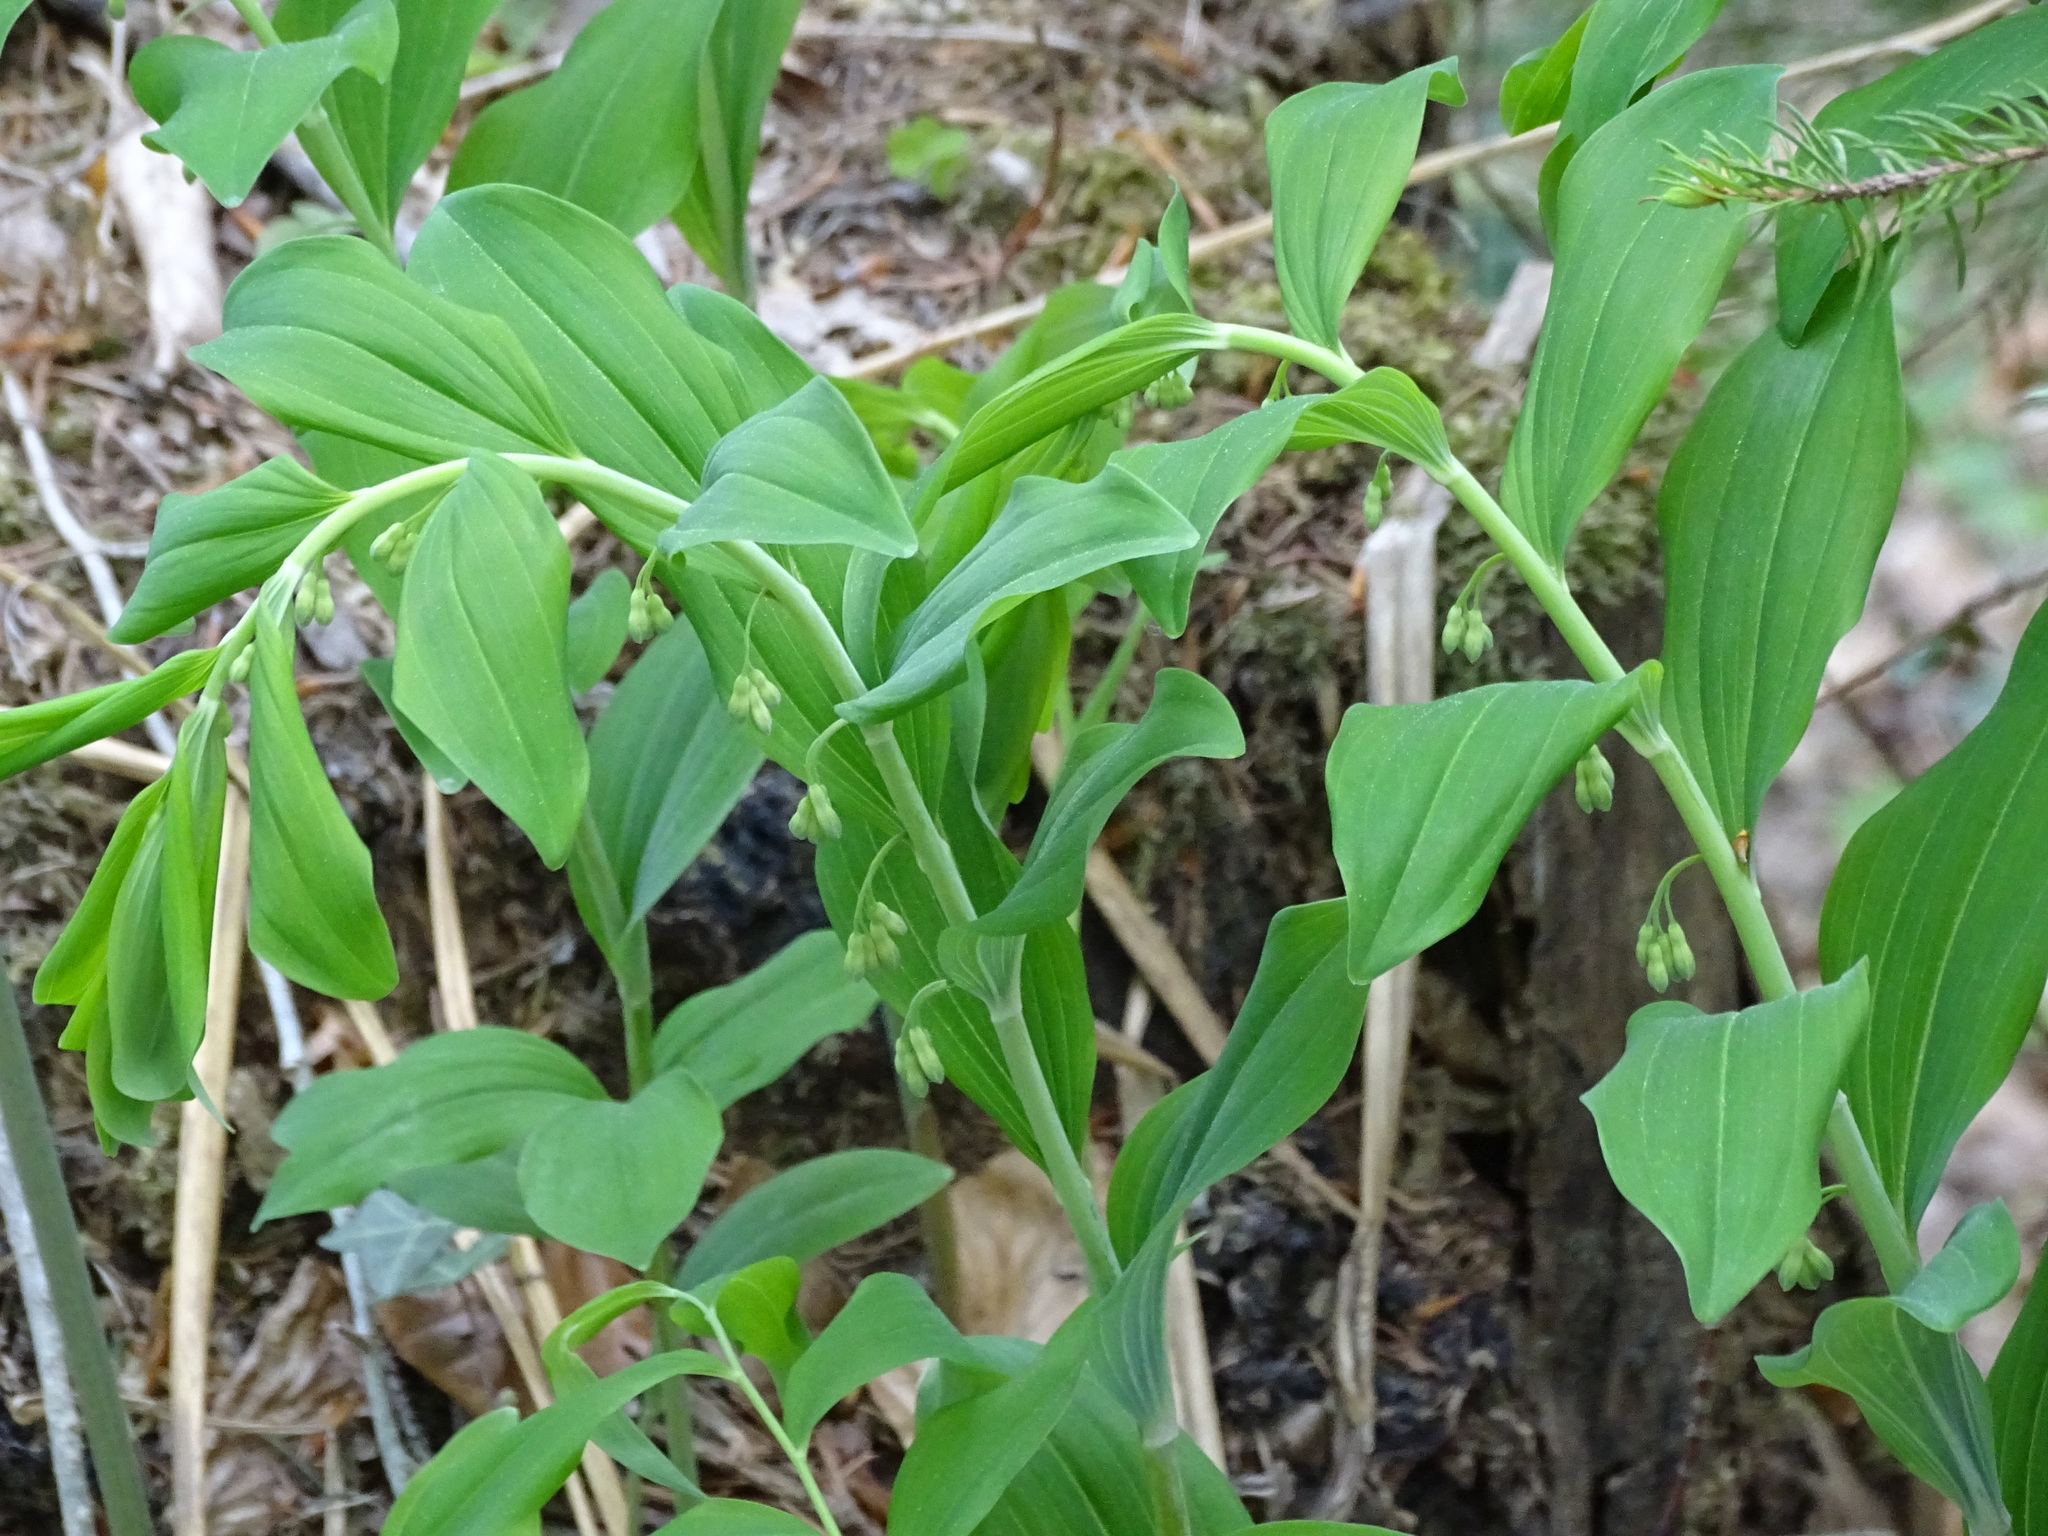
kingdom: Plantae
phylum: Tracheophyta
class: Liliopsida
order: Asparagales
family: Asparagaceae
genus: Polygonatum
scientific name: Polygonatum multiflorum
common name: Solomon's-seal
